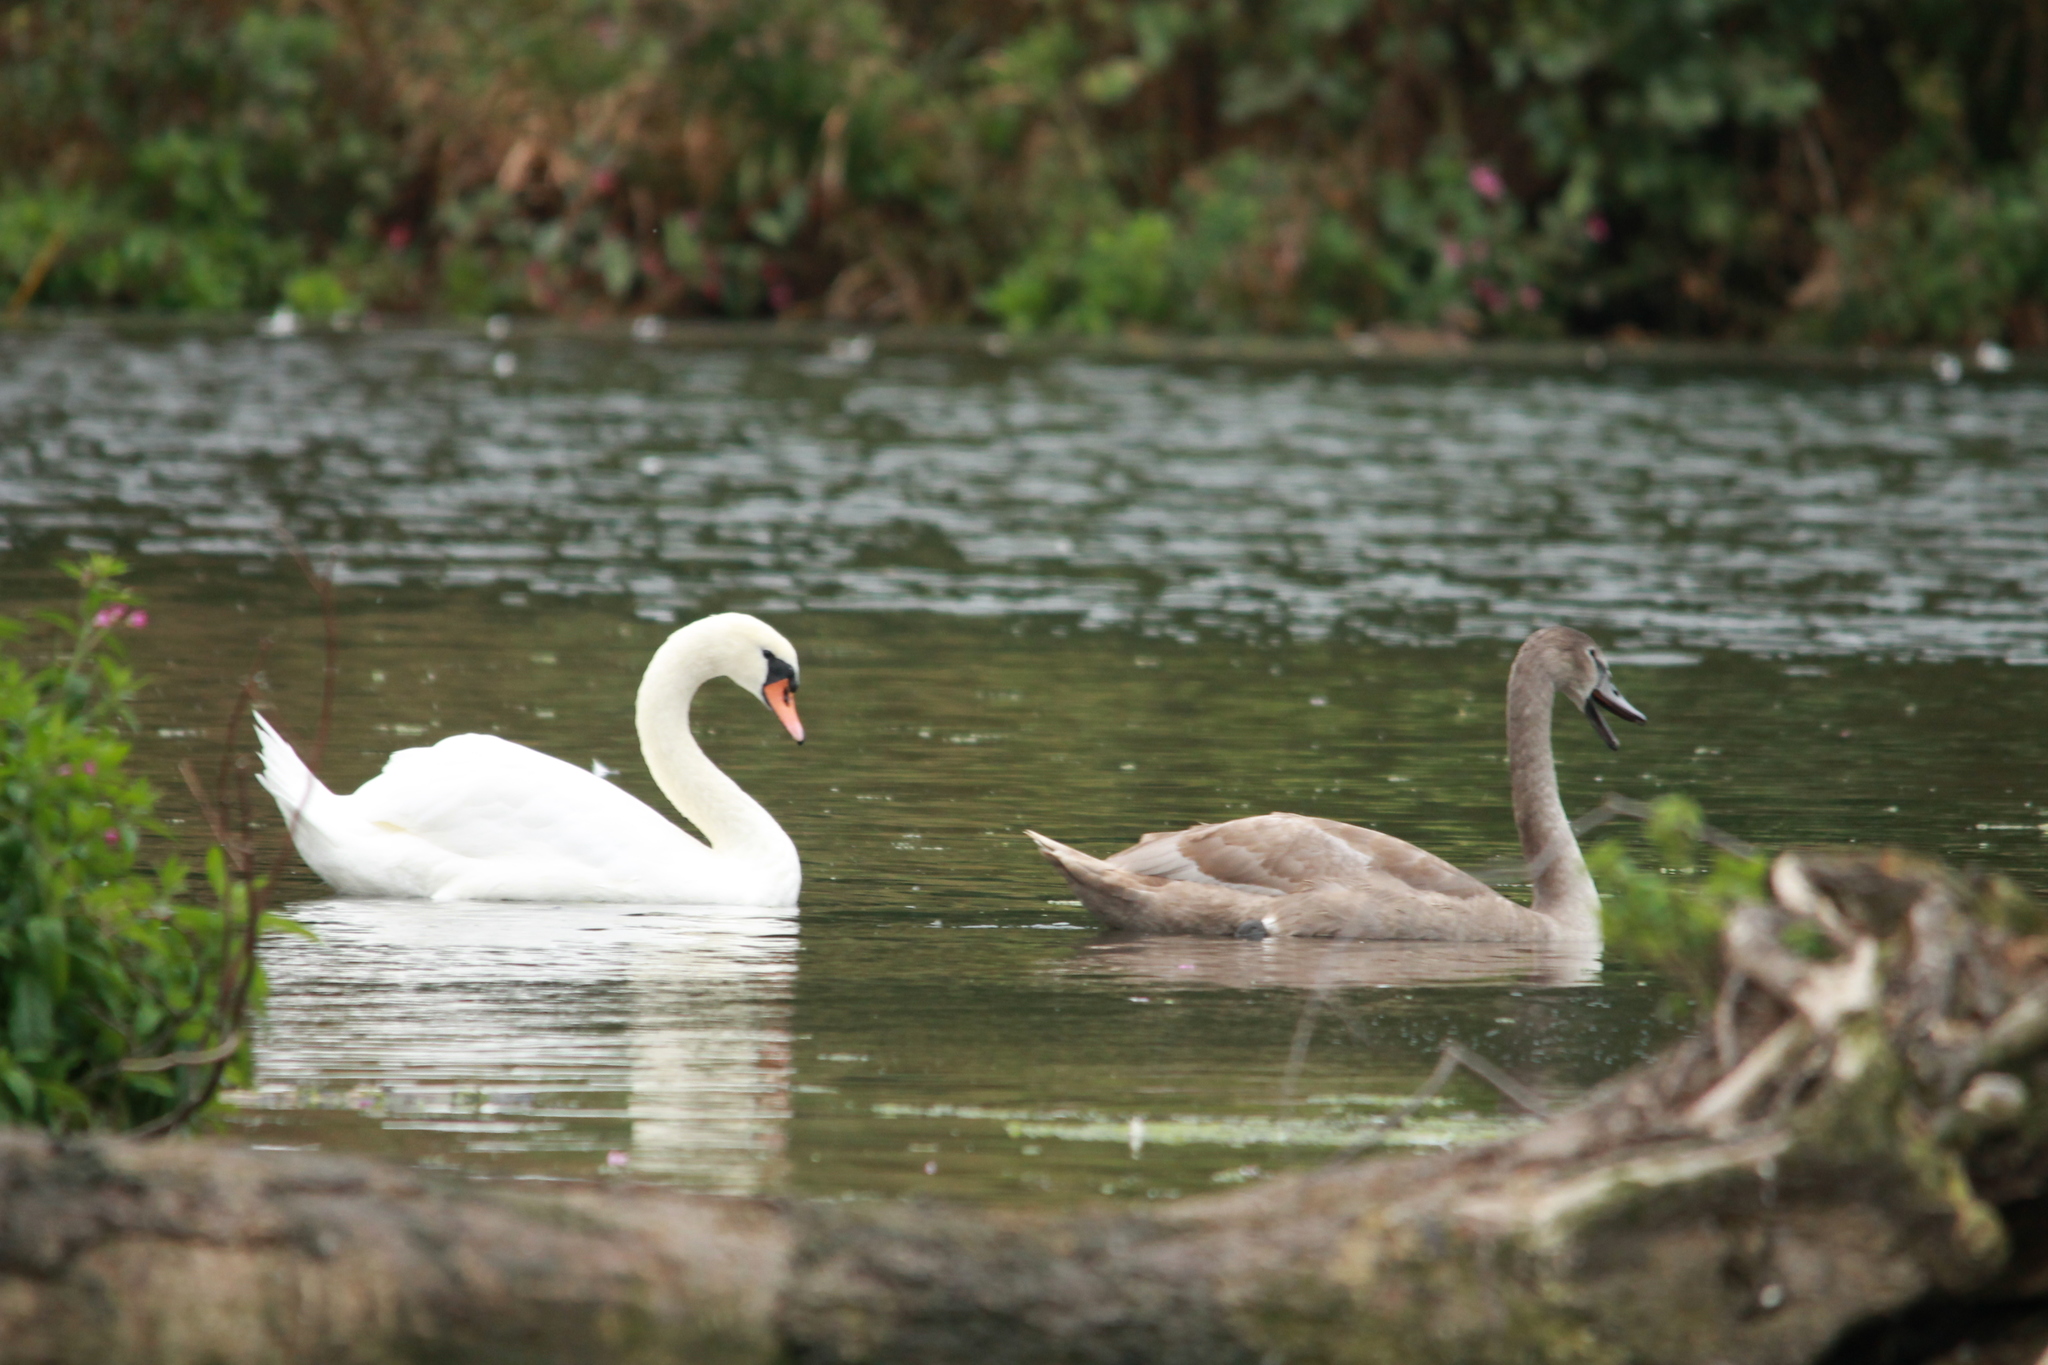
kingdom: Animalia
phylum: Chordata
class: Aves
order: Anseriformes
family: Anatidae
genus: Cygnus
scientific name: Cygnus olor
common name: Mute swan
